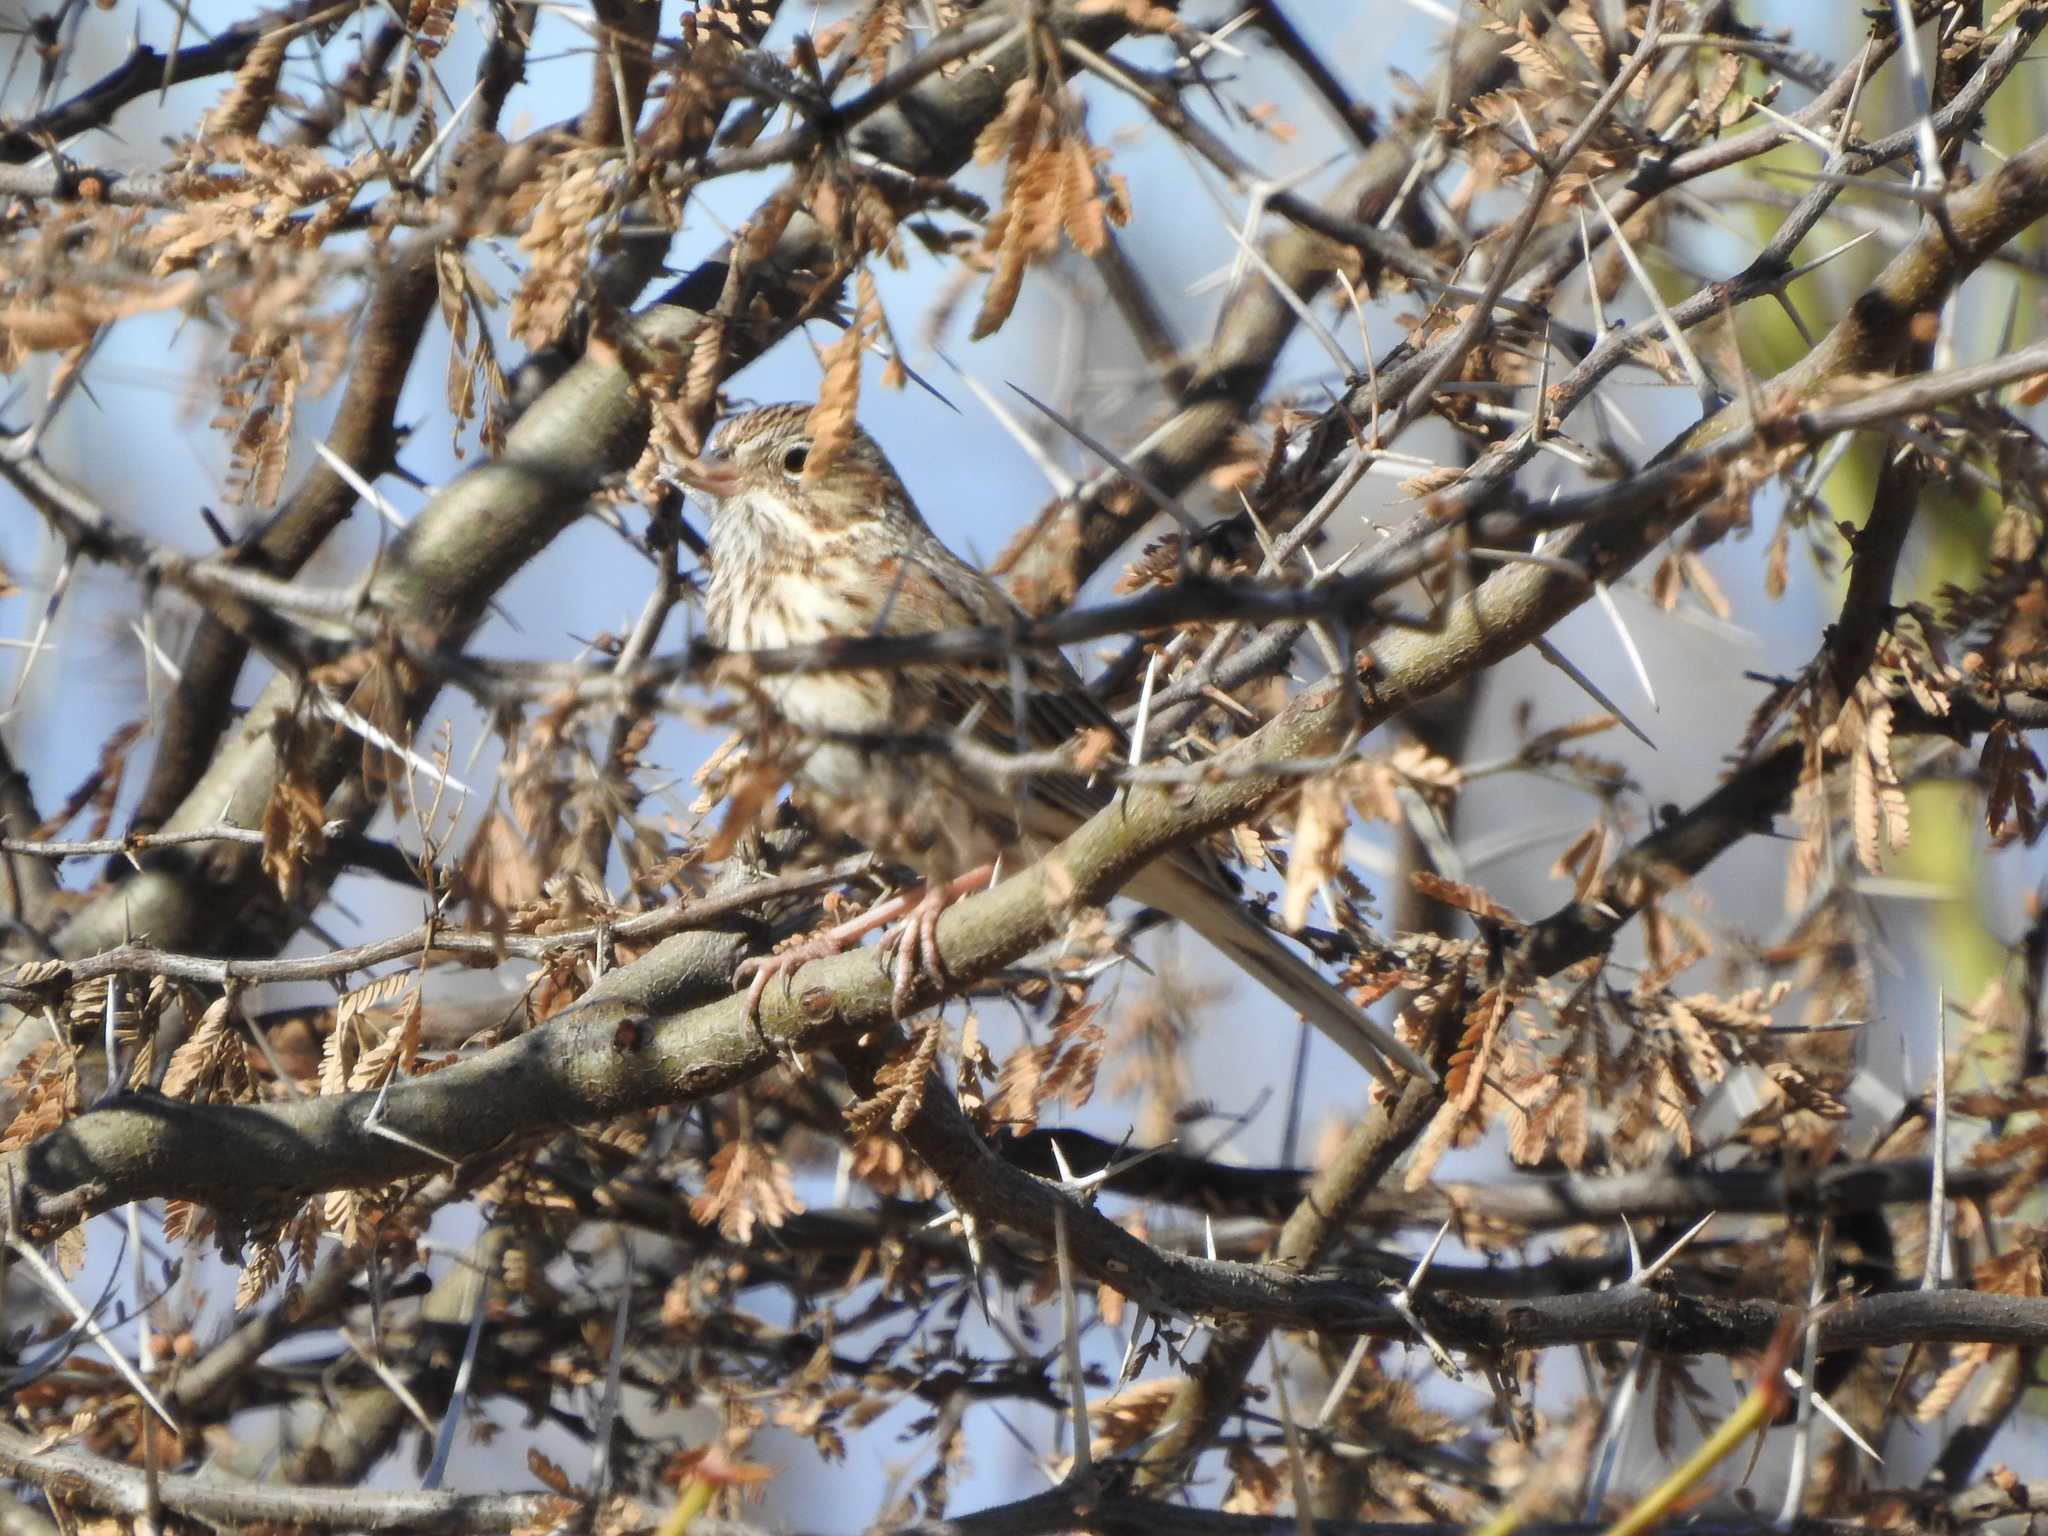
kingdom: Animalia
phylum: Chordata
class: Aves
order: Passeriformes
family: Passerellidae
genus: Pooecetes
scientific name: Pooecetes gramineus
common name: Vesper sparrow
